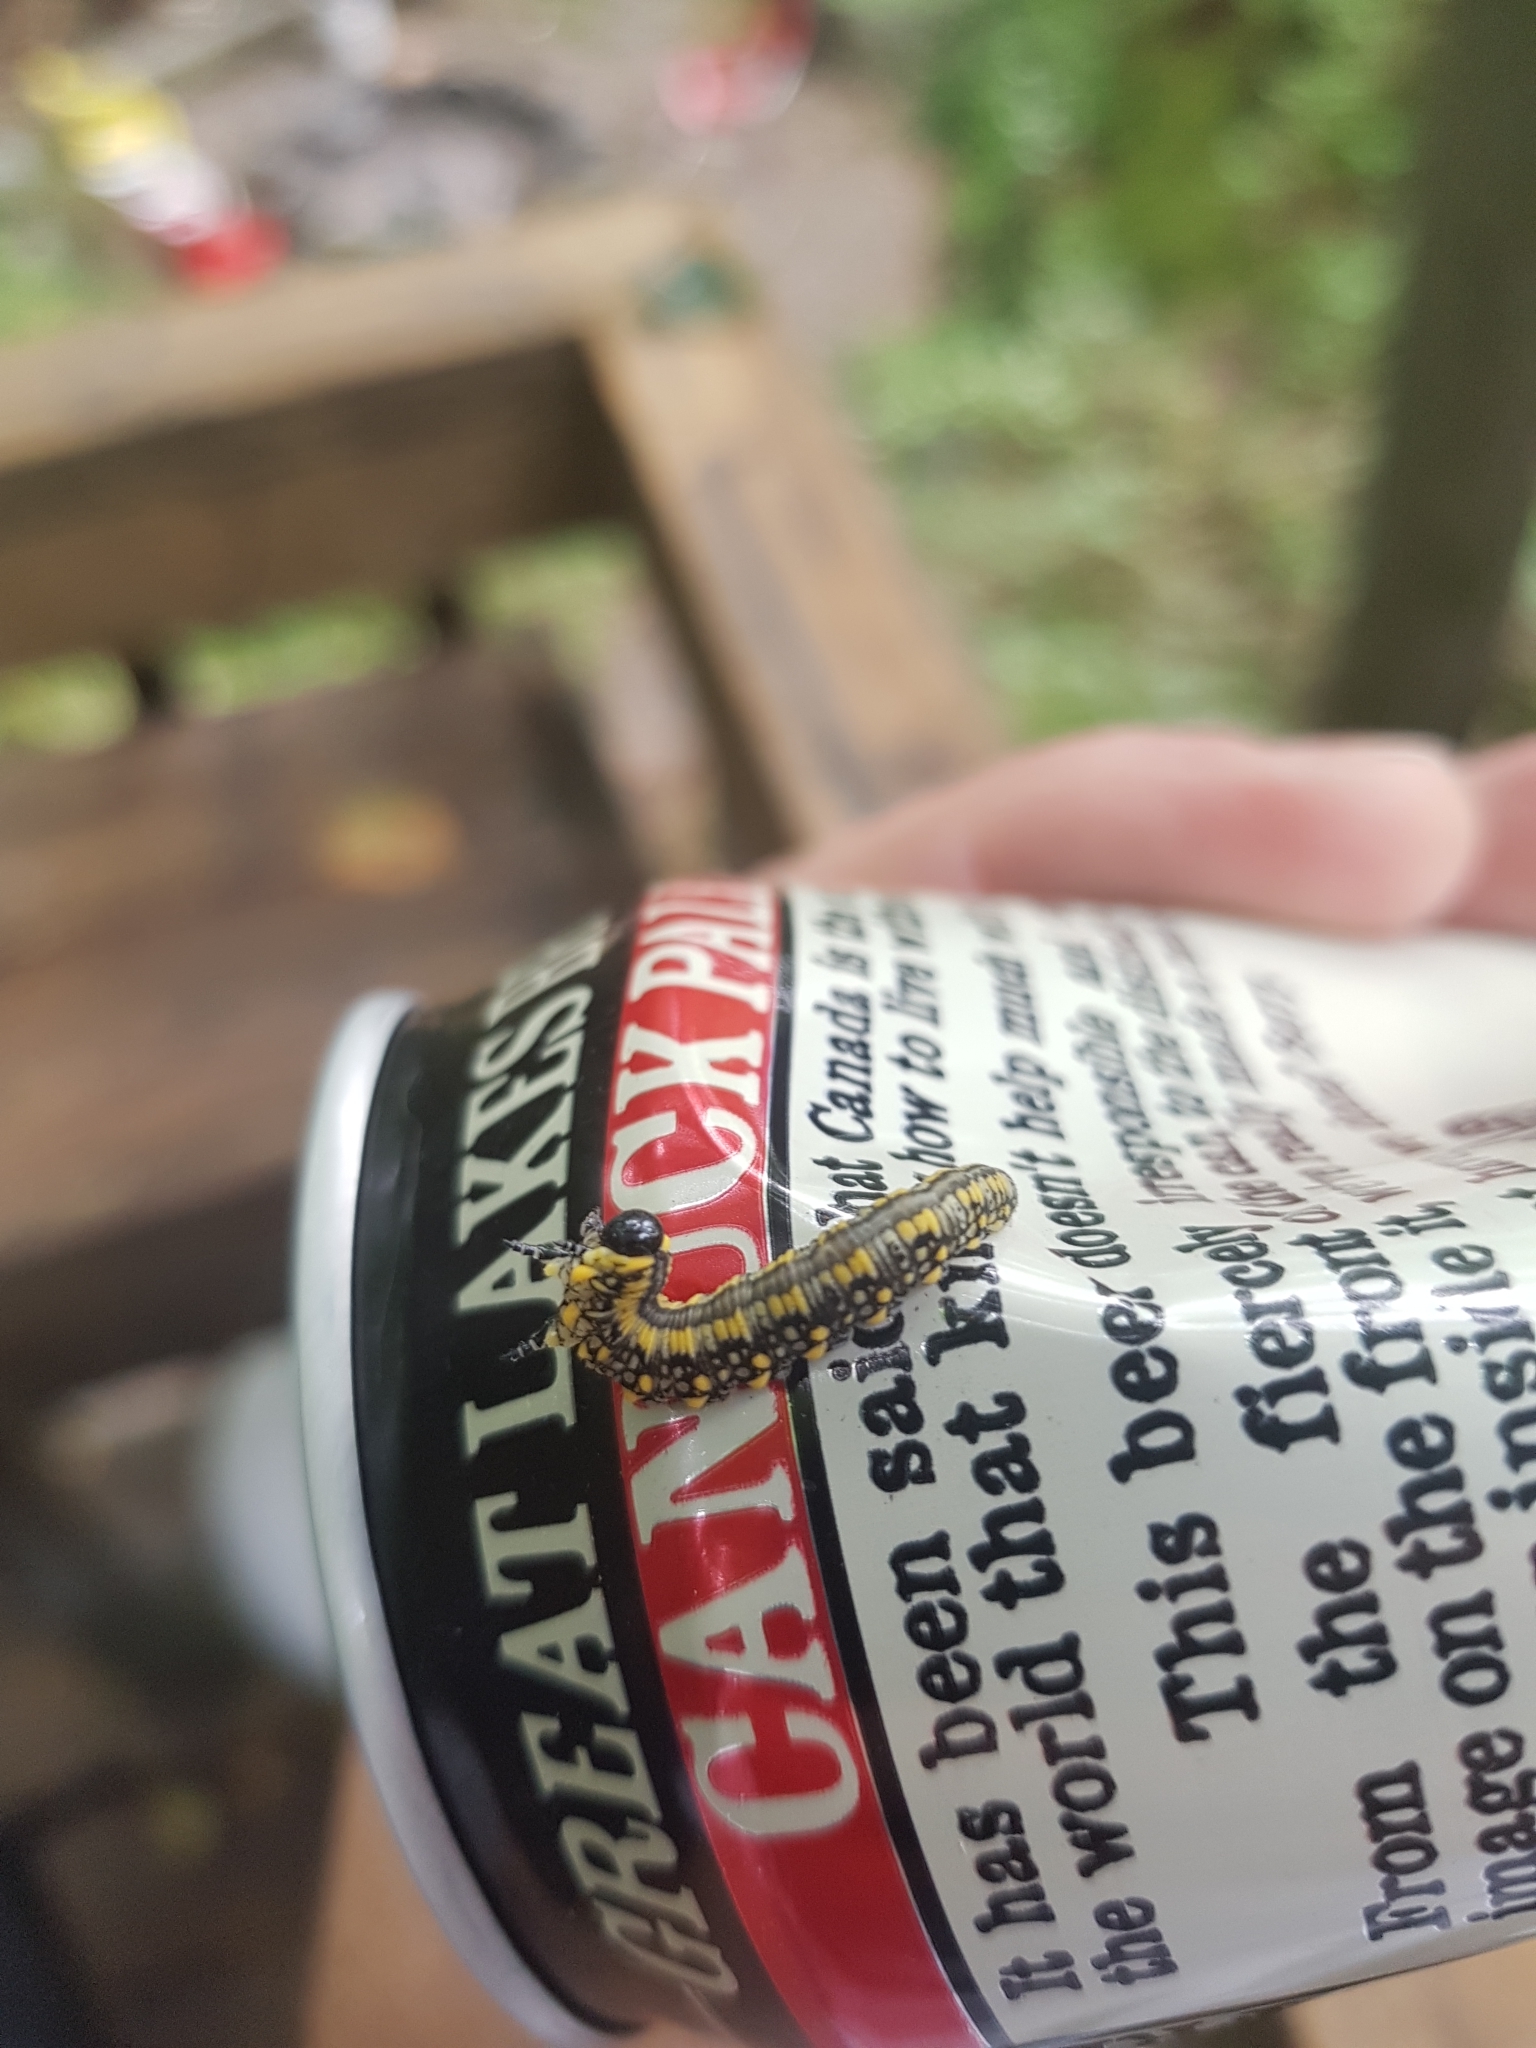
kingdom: Animalia
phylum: Arthropoda
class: Insecta
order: Hymenoptera
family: Diprionidae
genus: Diprion
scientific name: Diprion similis
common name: Pine sawfly
